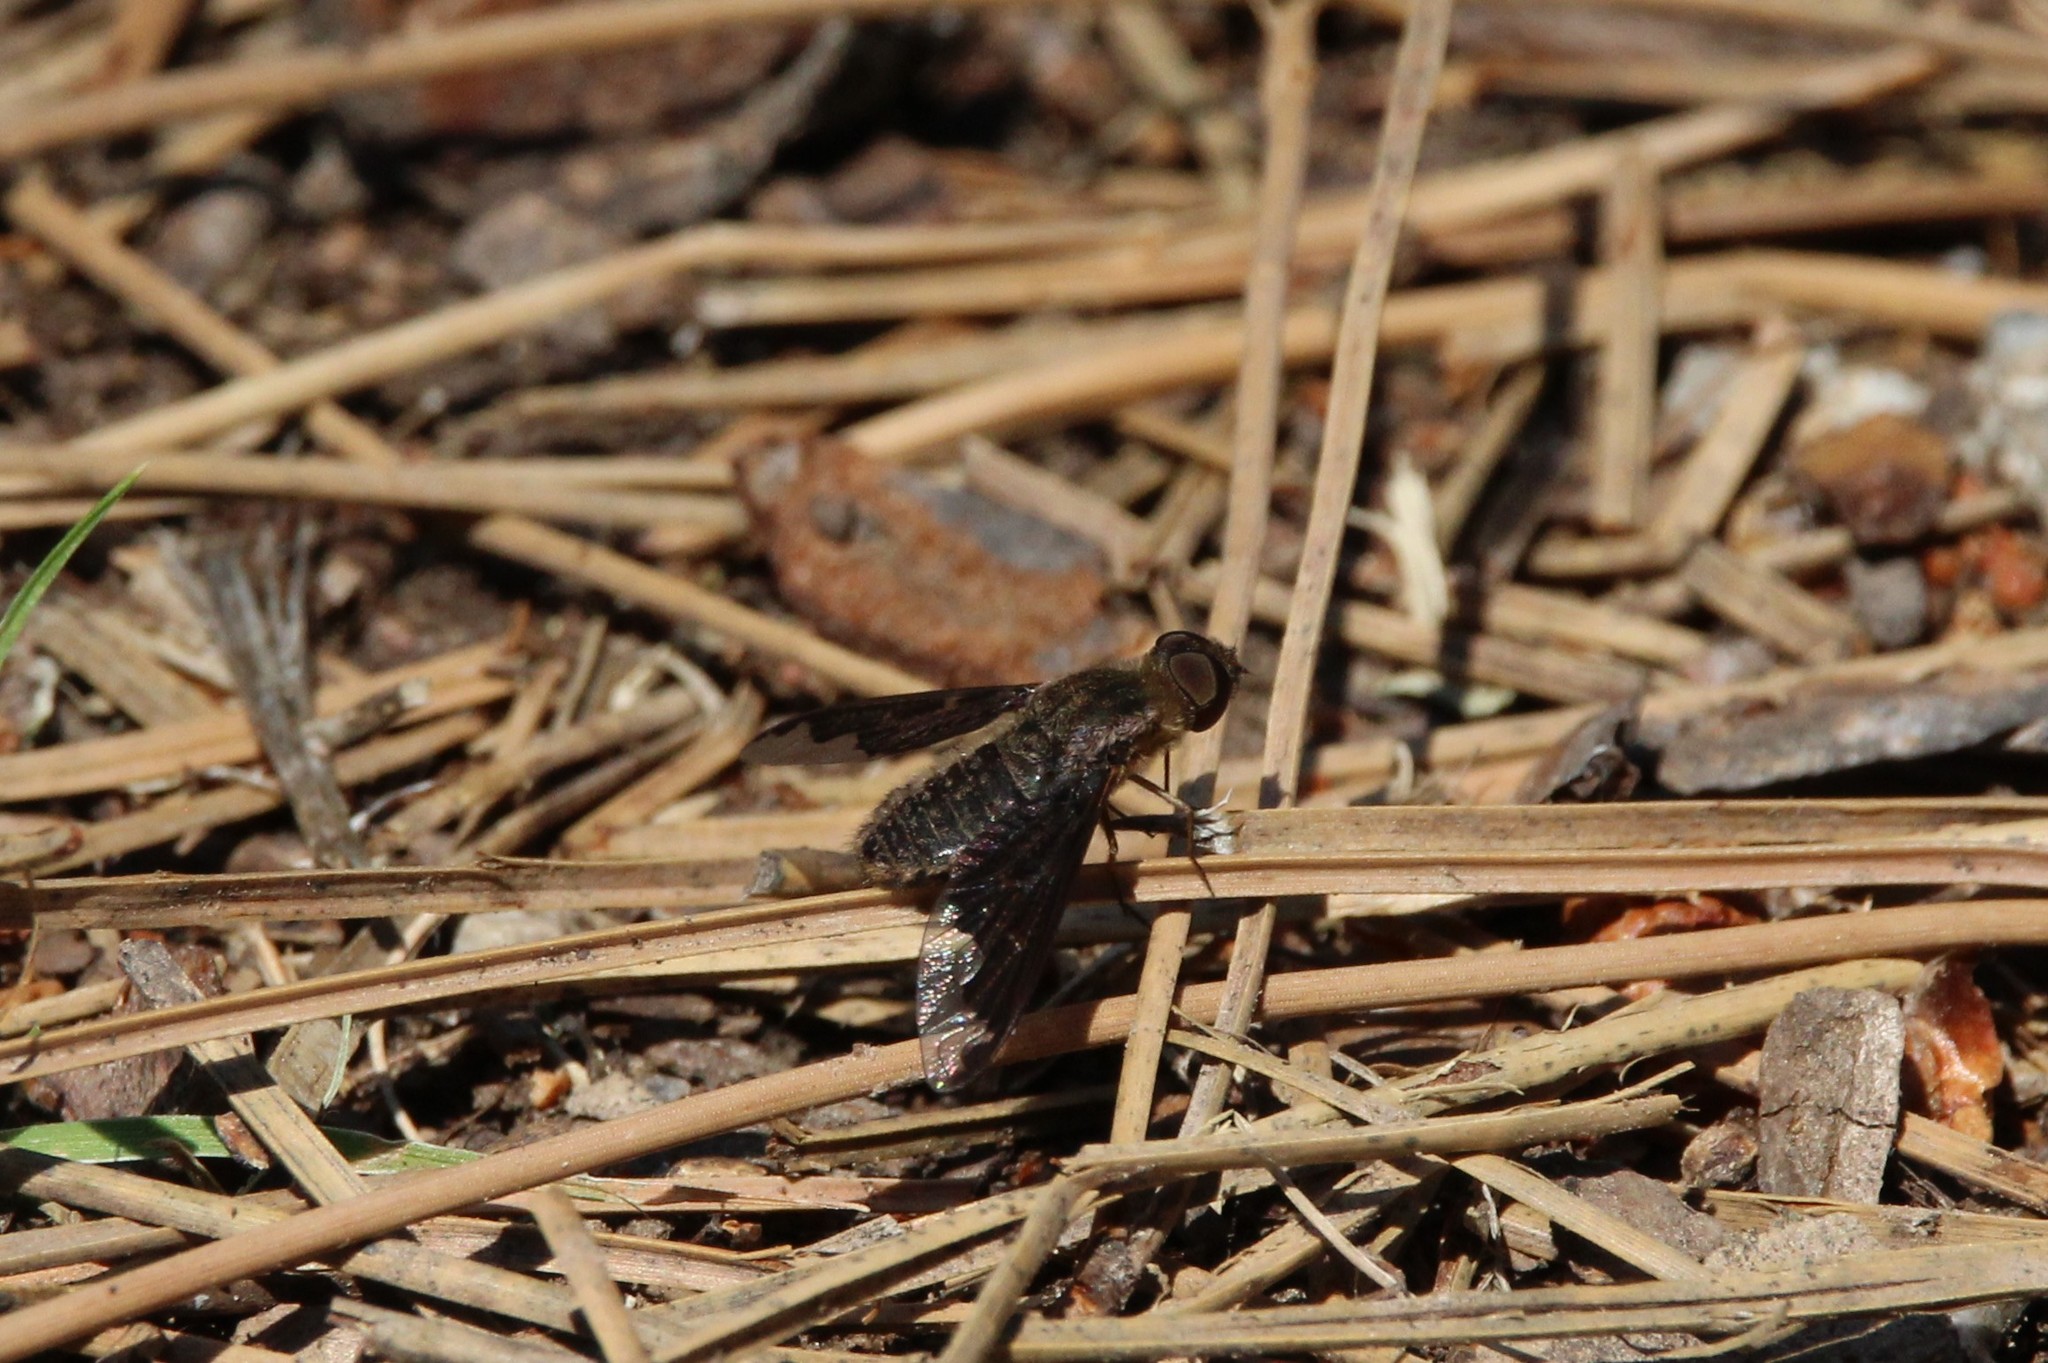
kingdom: Animalia
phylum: Arthropoda
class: Insecta
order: Diptera
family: Bombyliidae
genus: Hemipenthes
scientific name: Hemipenthes sinuosus
